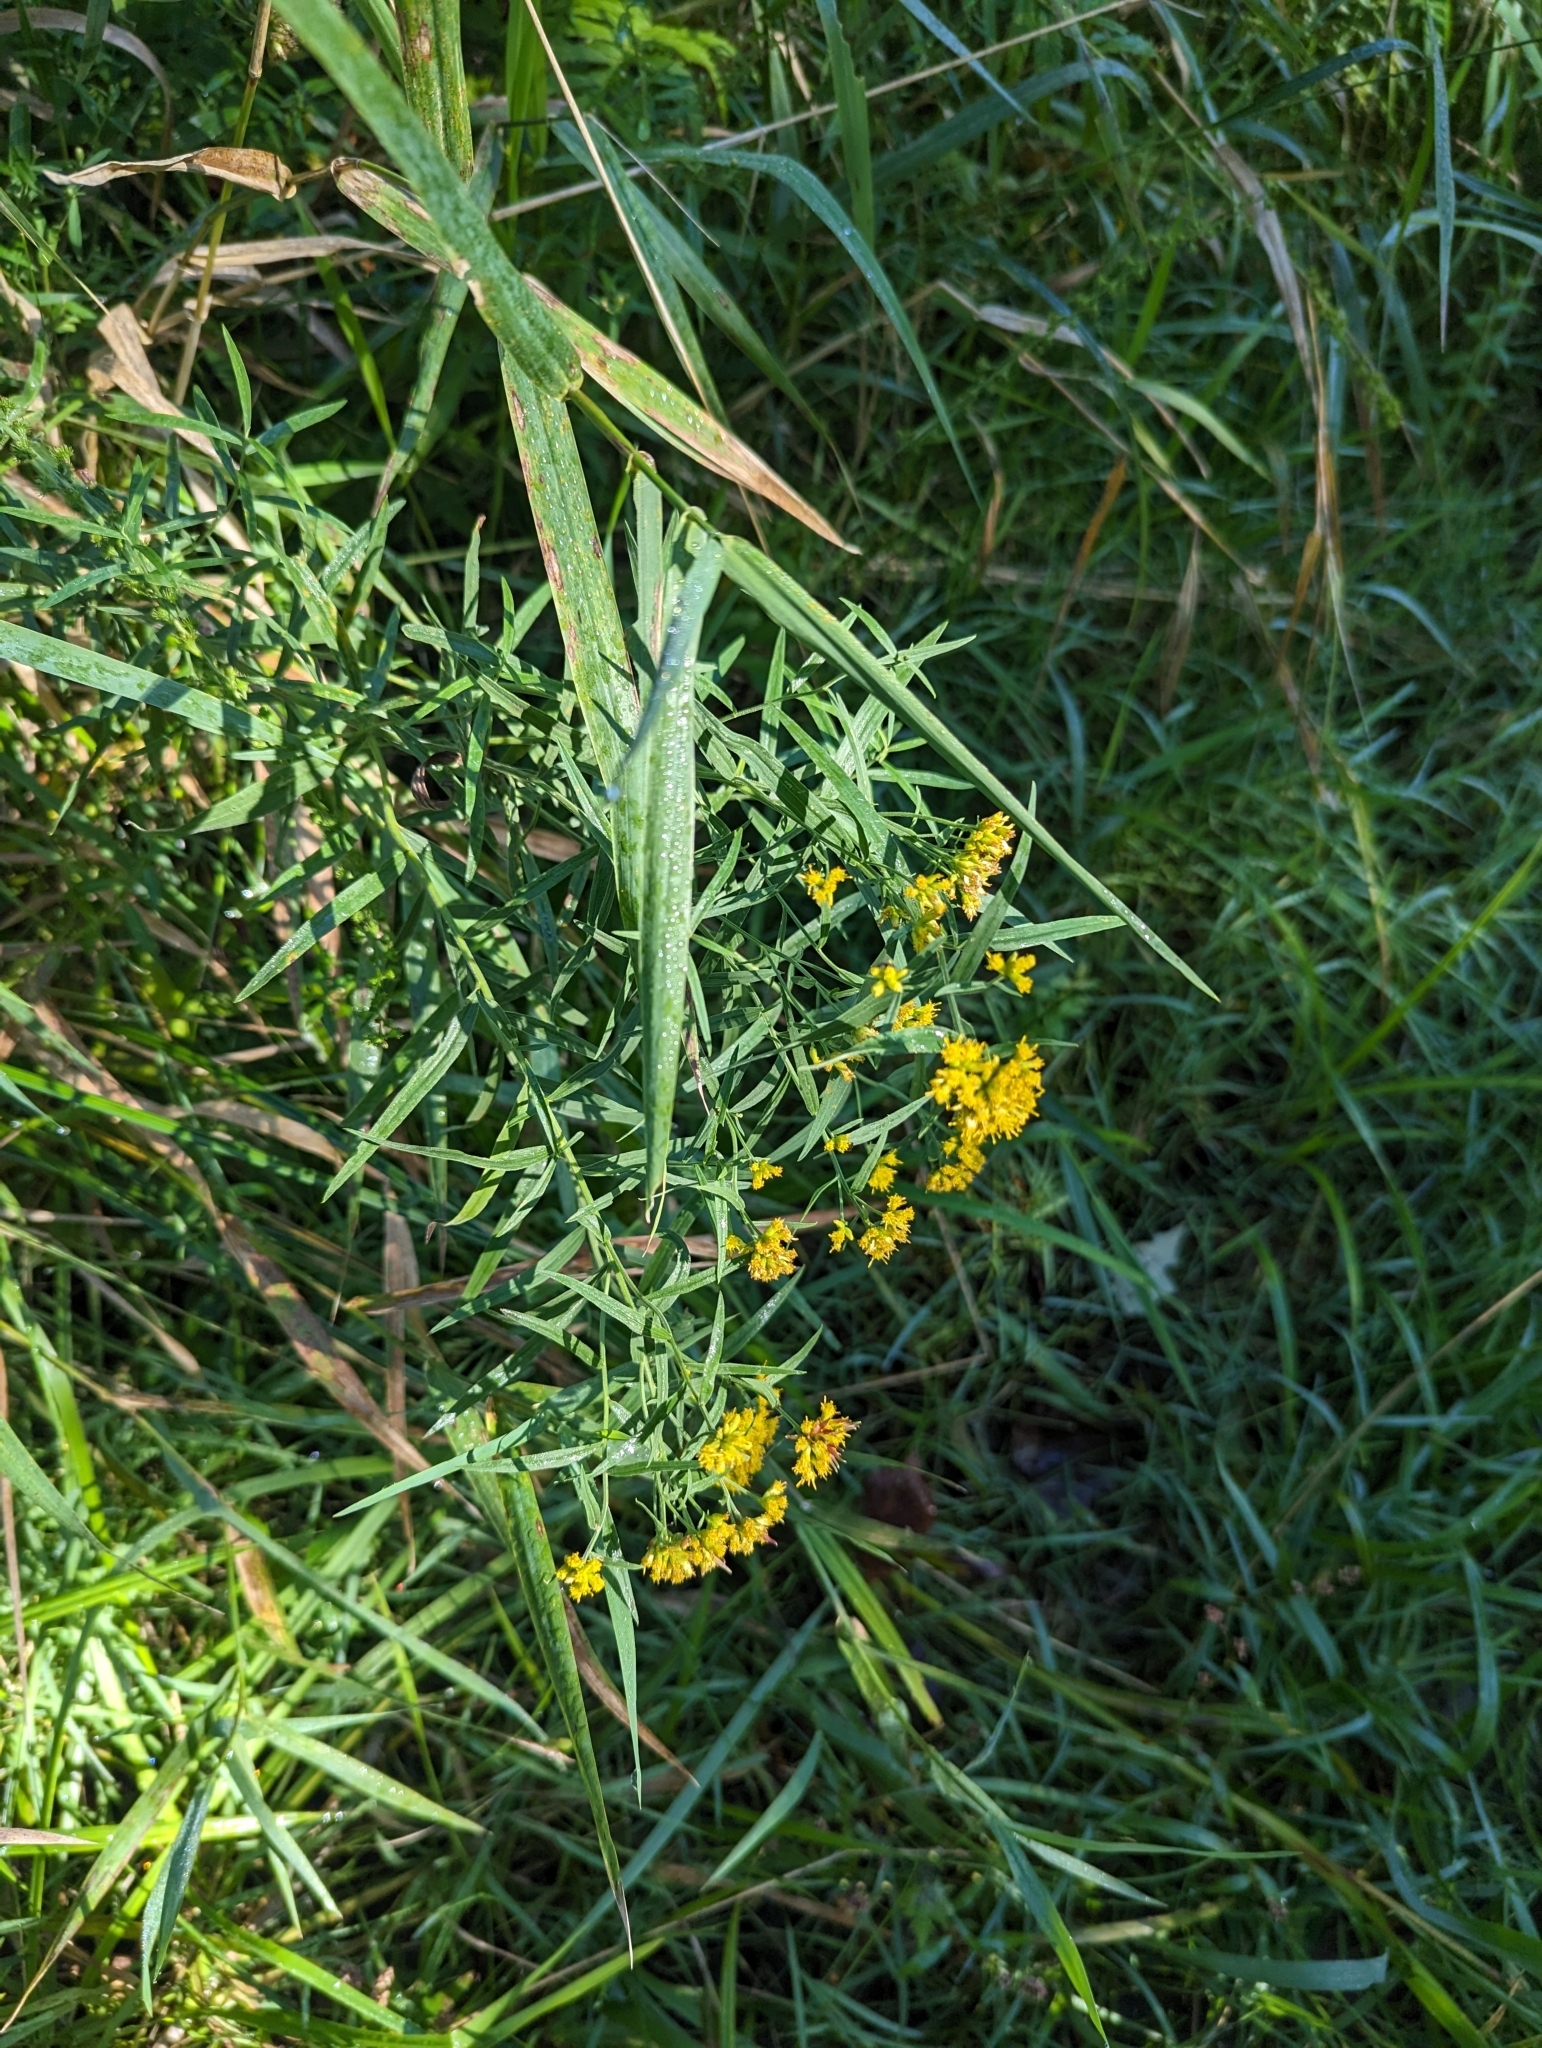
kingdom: Plantae
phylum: Tracheophyta
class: Magnoliopsida
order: Asterales
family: Asteraceae
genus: Euthamia
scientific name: Euthamia graminifolia
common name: Common goldentop
